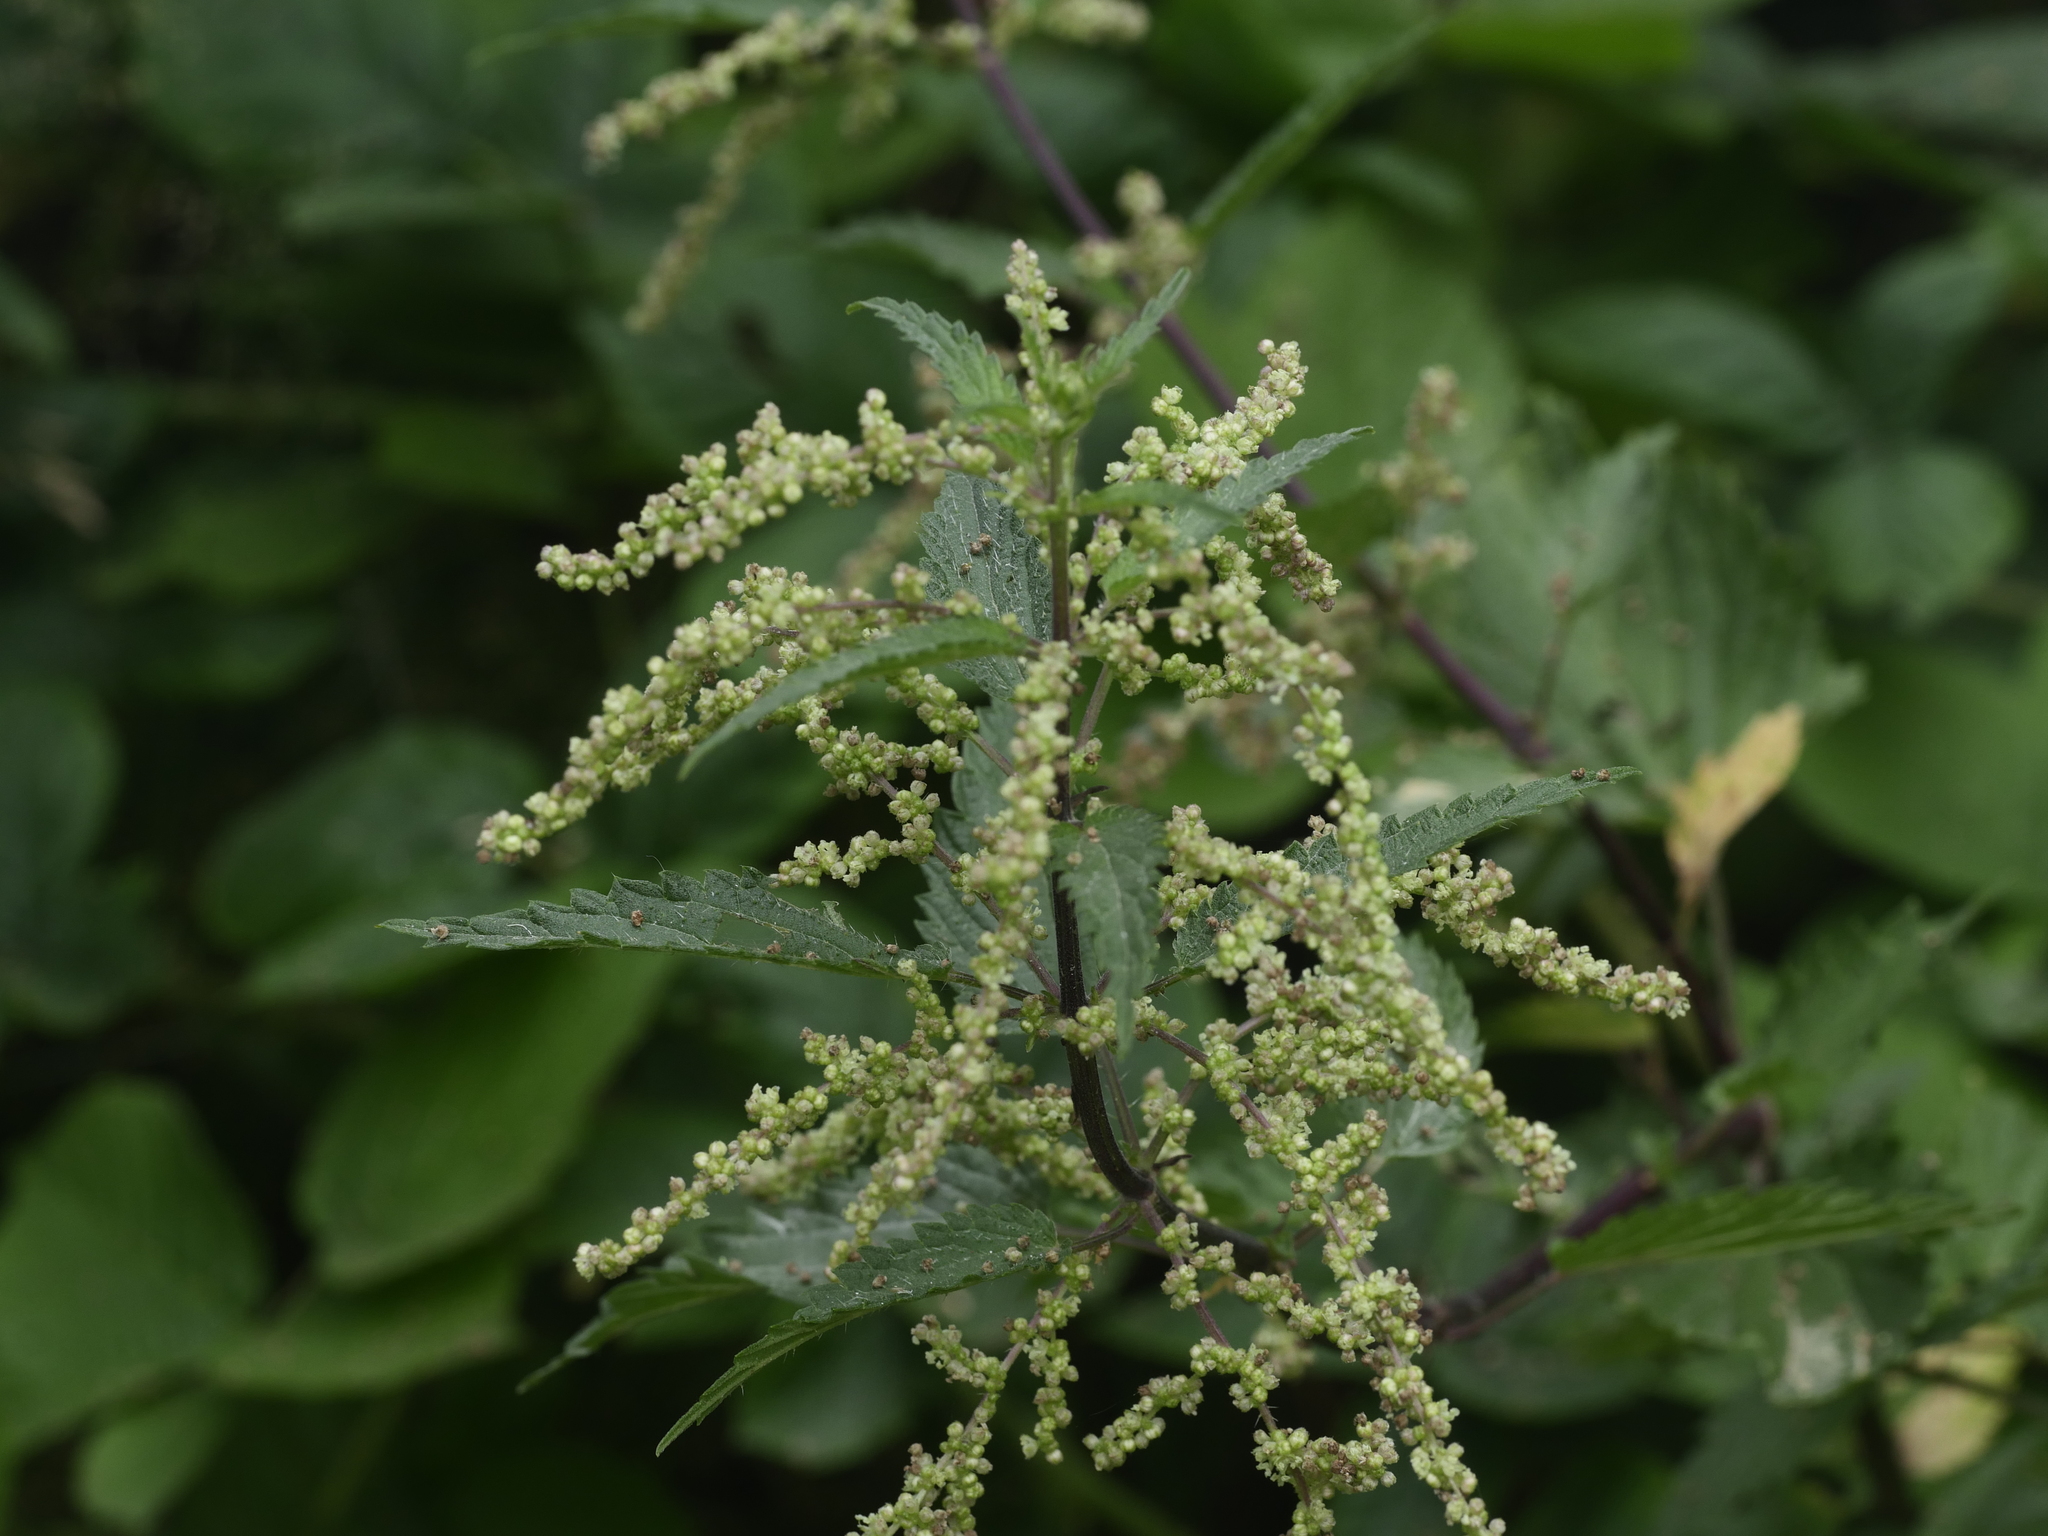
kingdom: Plantae
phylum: Tracheophyta
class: Magnoliopsida
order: Rosales
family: Urticaceae
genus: Urtica
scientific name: Urtica dioica
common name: Common nettle
